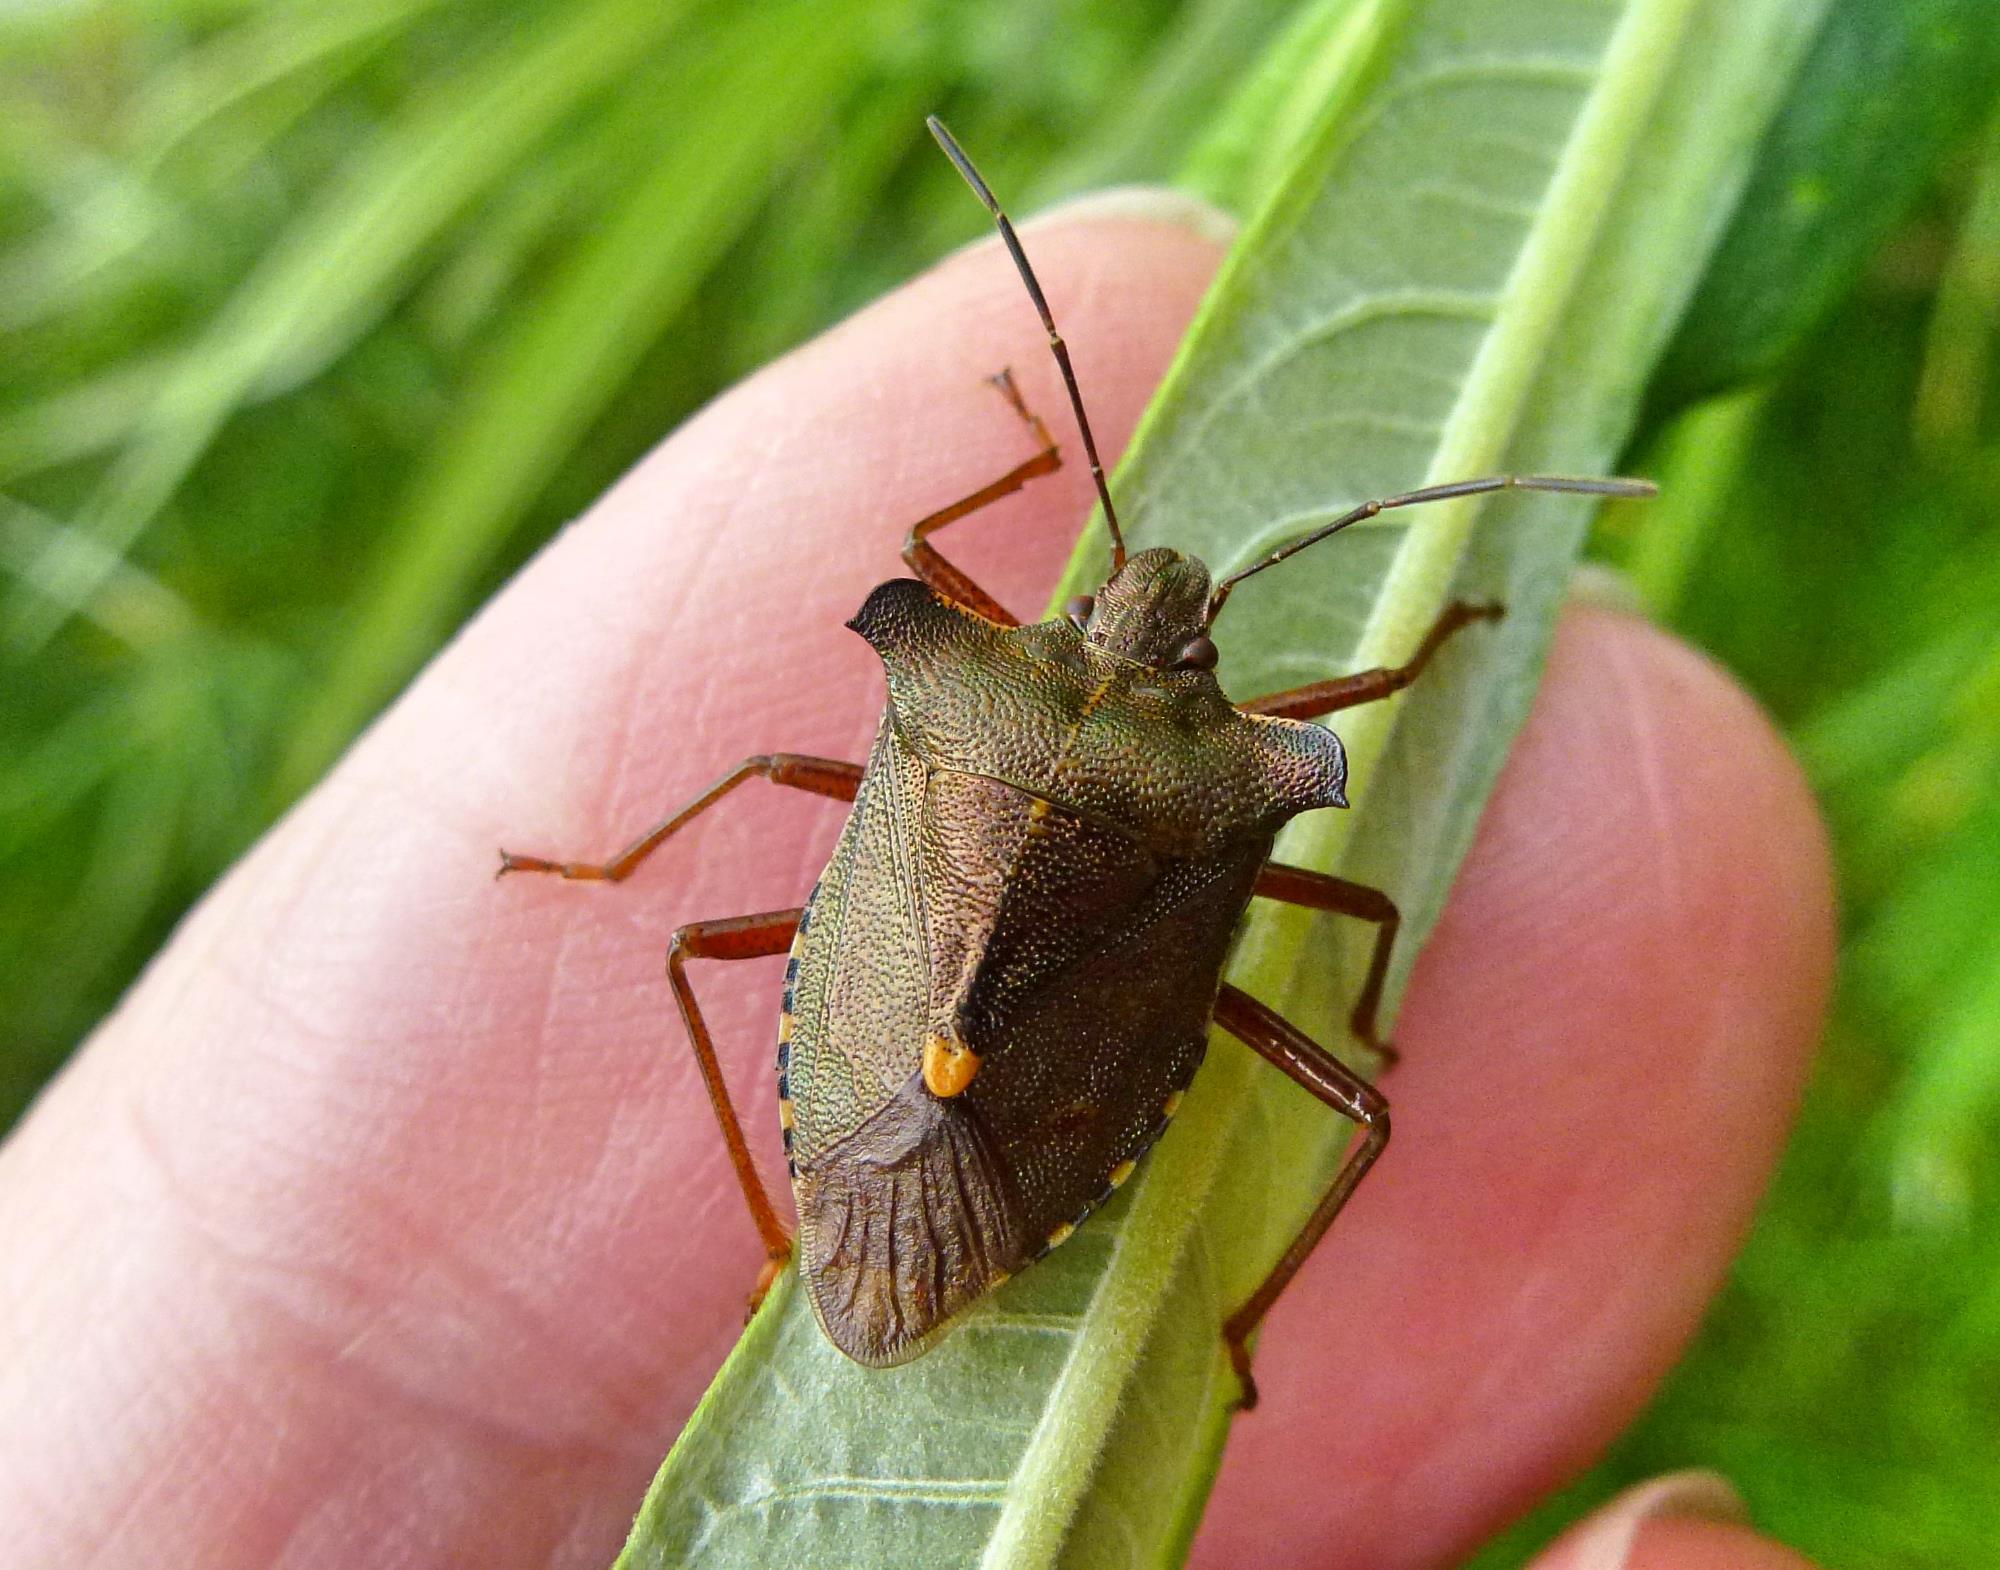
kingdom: Animalia
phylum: Arthropoda
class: Insecta
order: Hemiptera
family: Pentatomidae
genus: Pentatoma
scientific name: Pentatoma rufipes
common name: Forest bug
